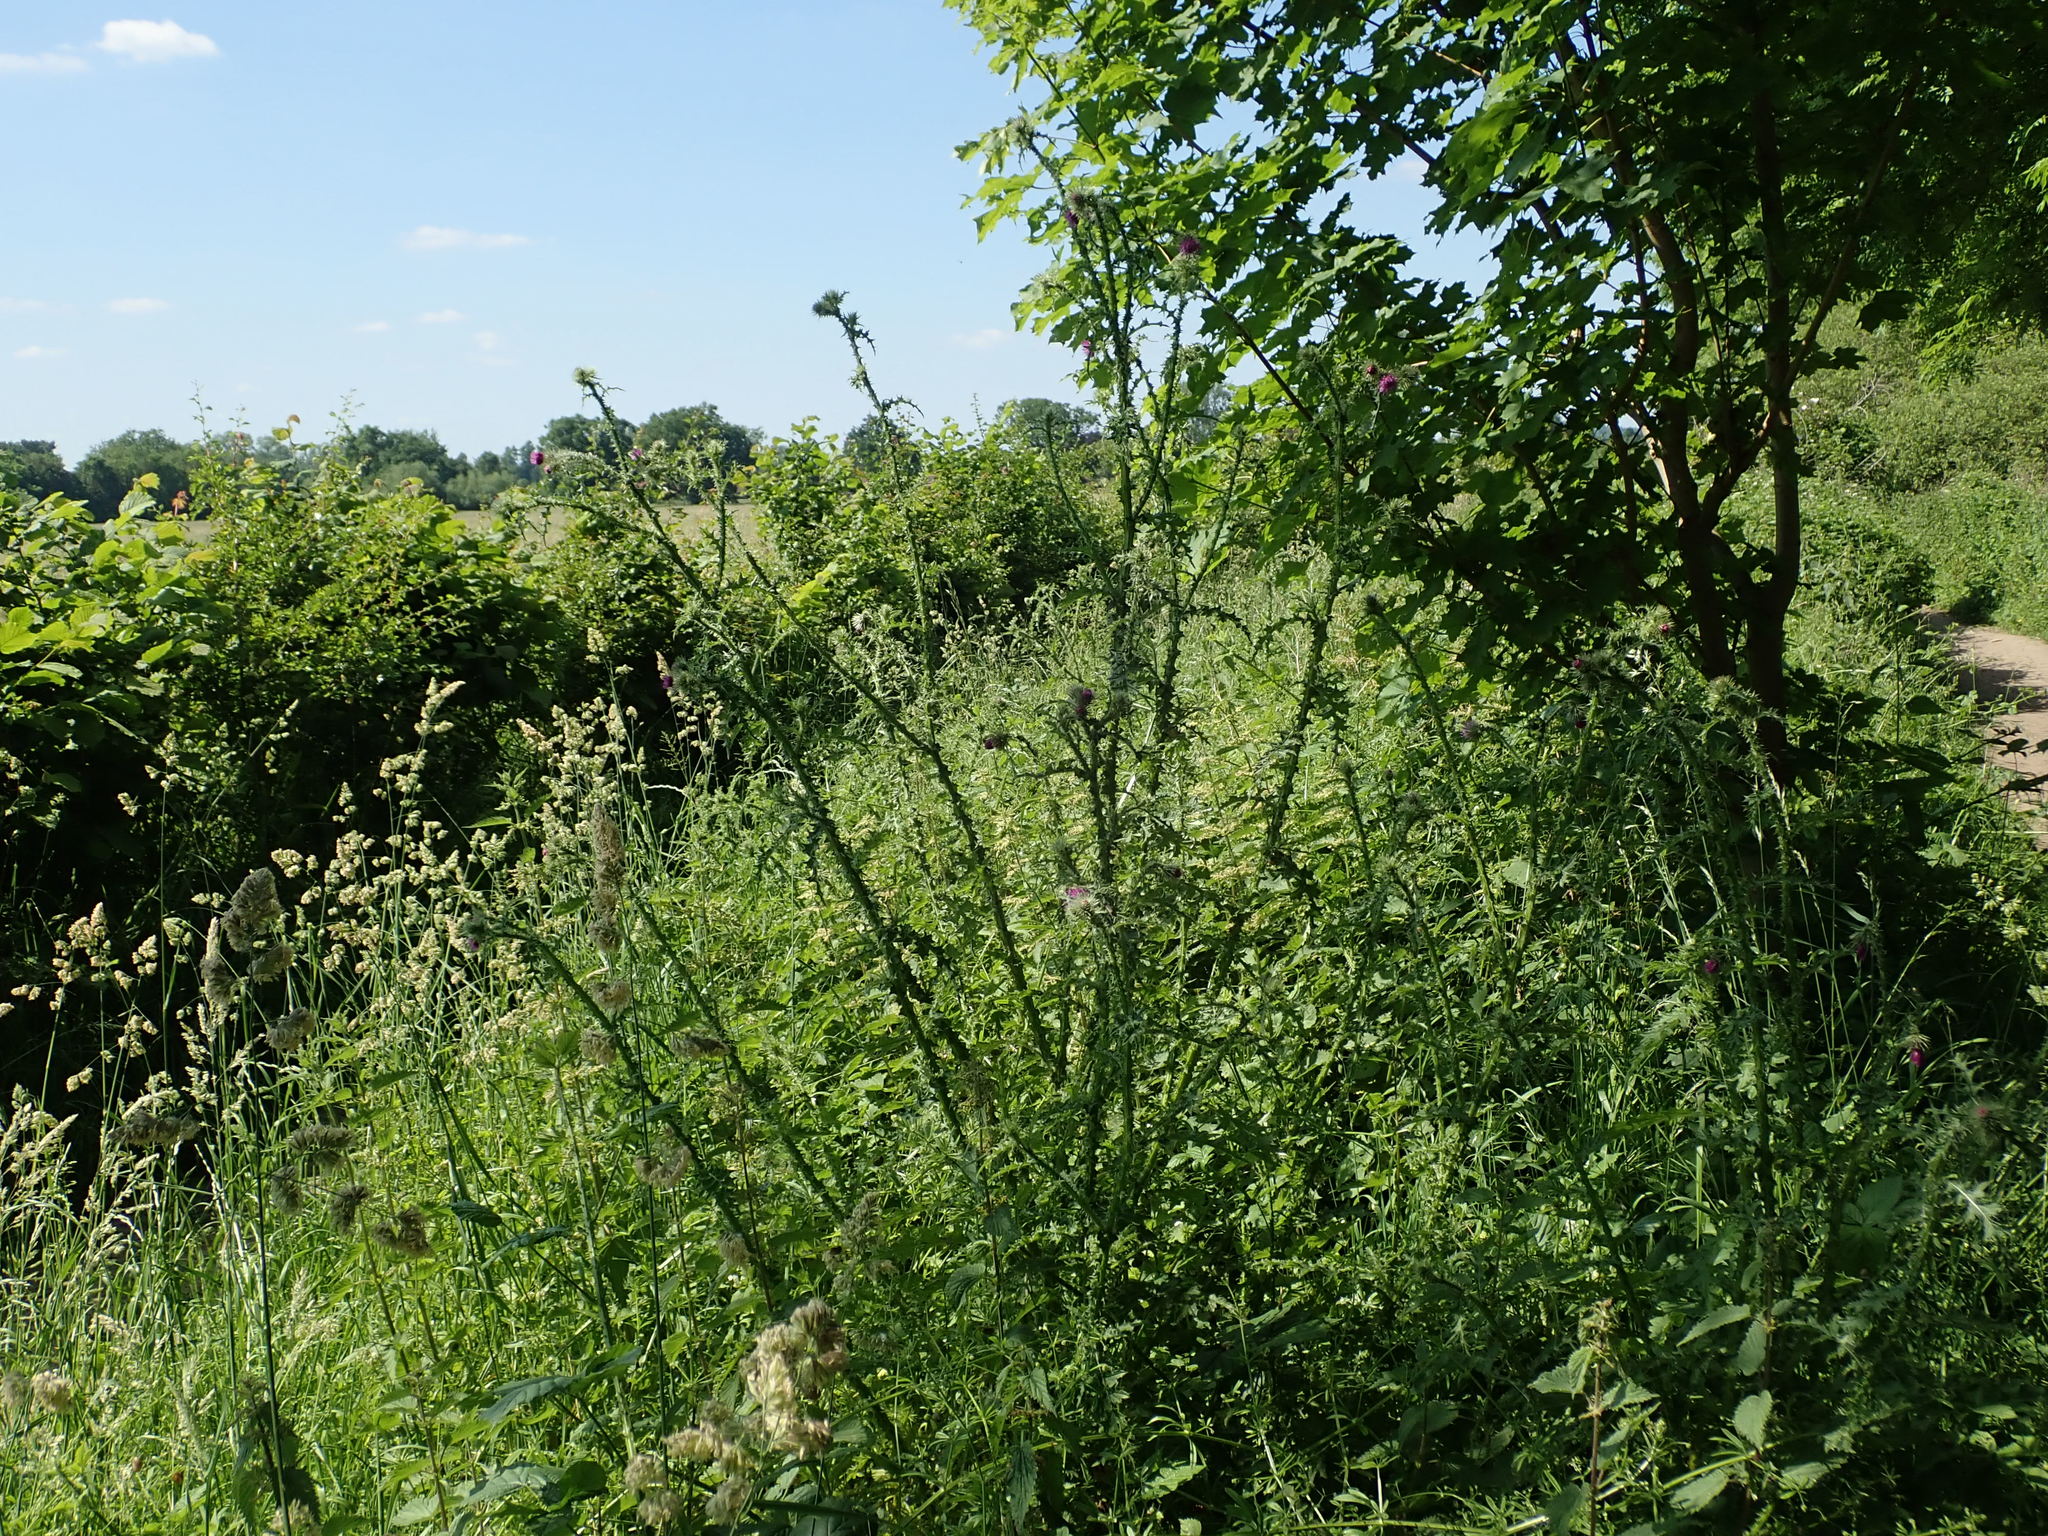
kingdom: Plantae
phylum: Tracheophyta
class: Magnoliopsida
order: Asterales
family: Asteraceae
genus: Carduus
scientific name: Carduus crispus
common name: Welted thistle
